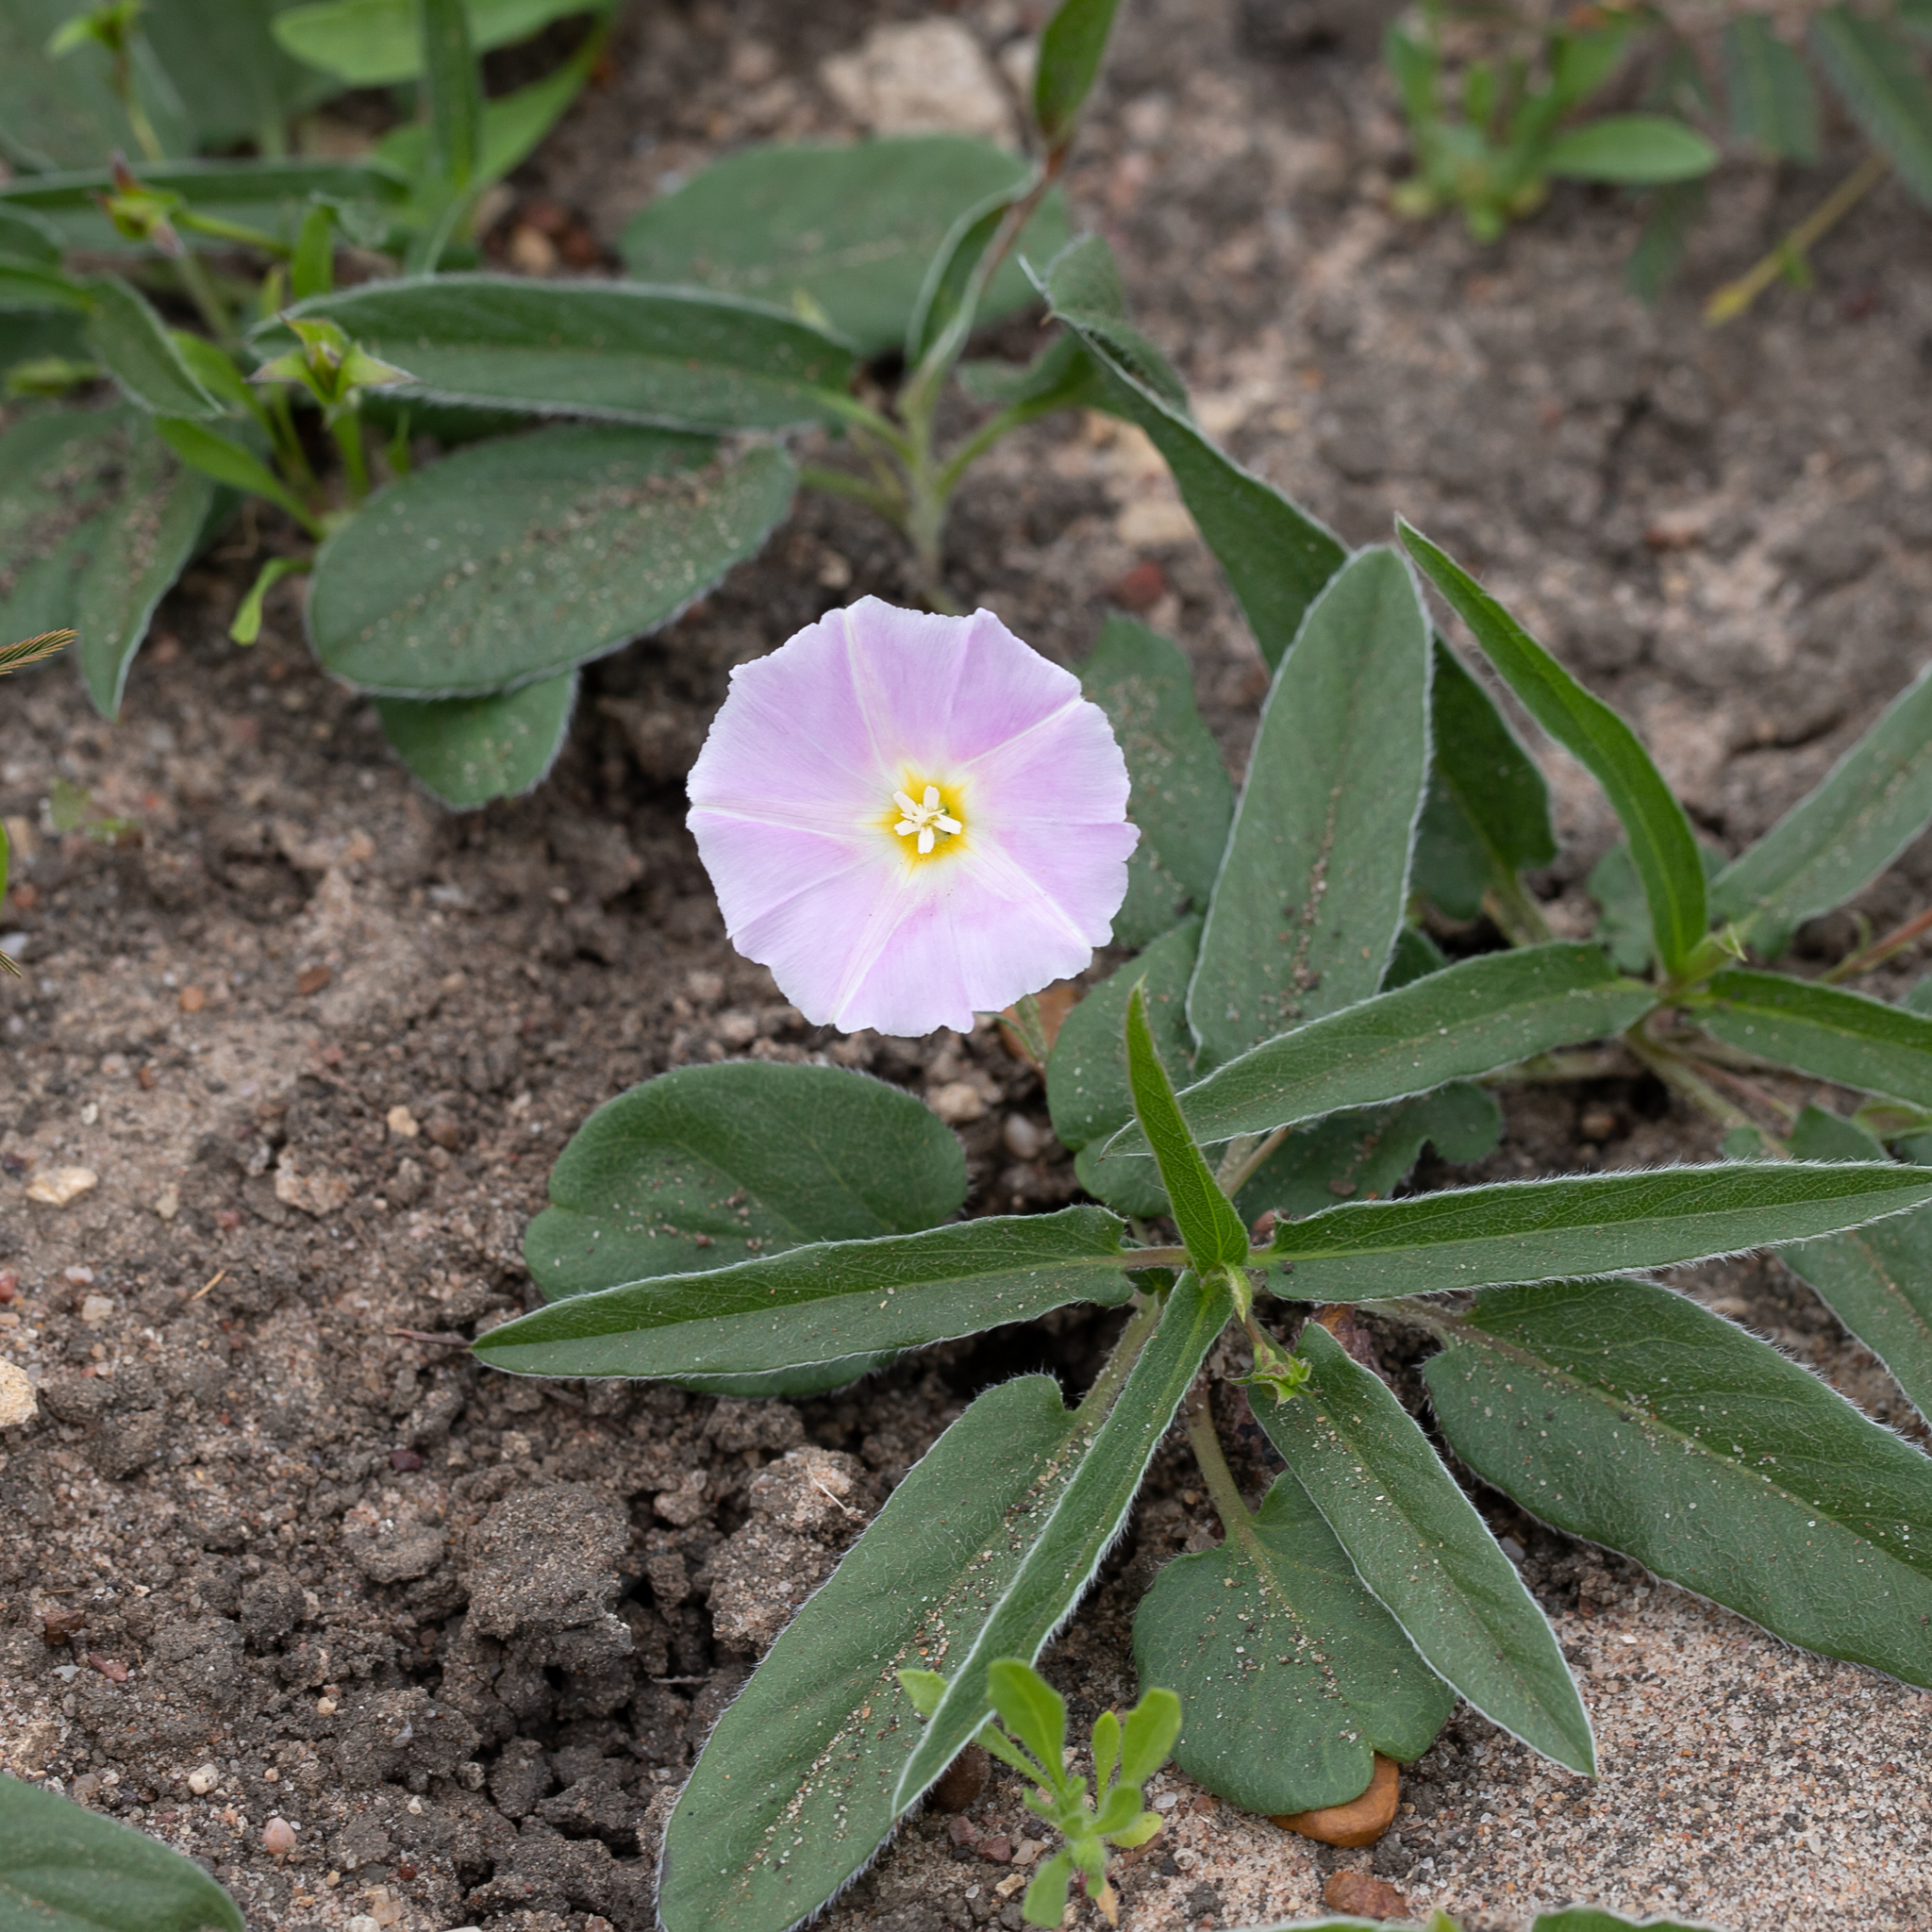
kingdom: Plantae
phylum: Tracheophyta
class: Magnoliopsida
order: Solanales
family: Convolvulaceae
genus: Polymeria
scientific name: Polymeria longifolia
